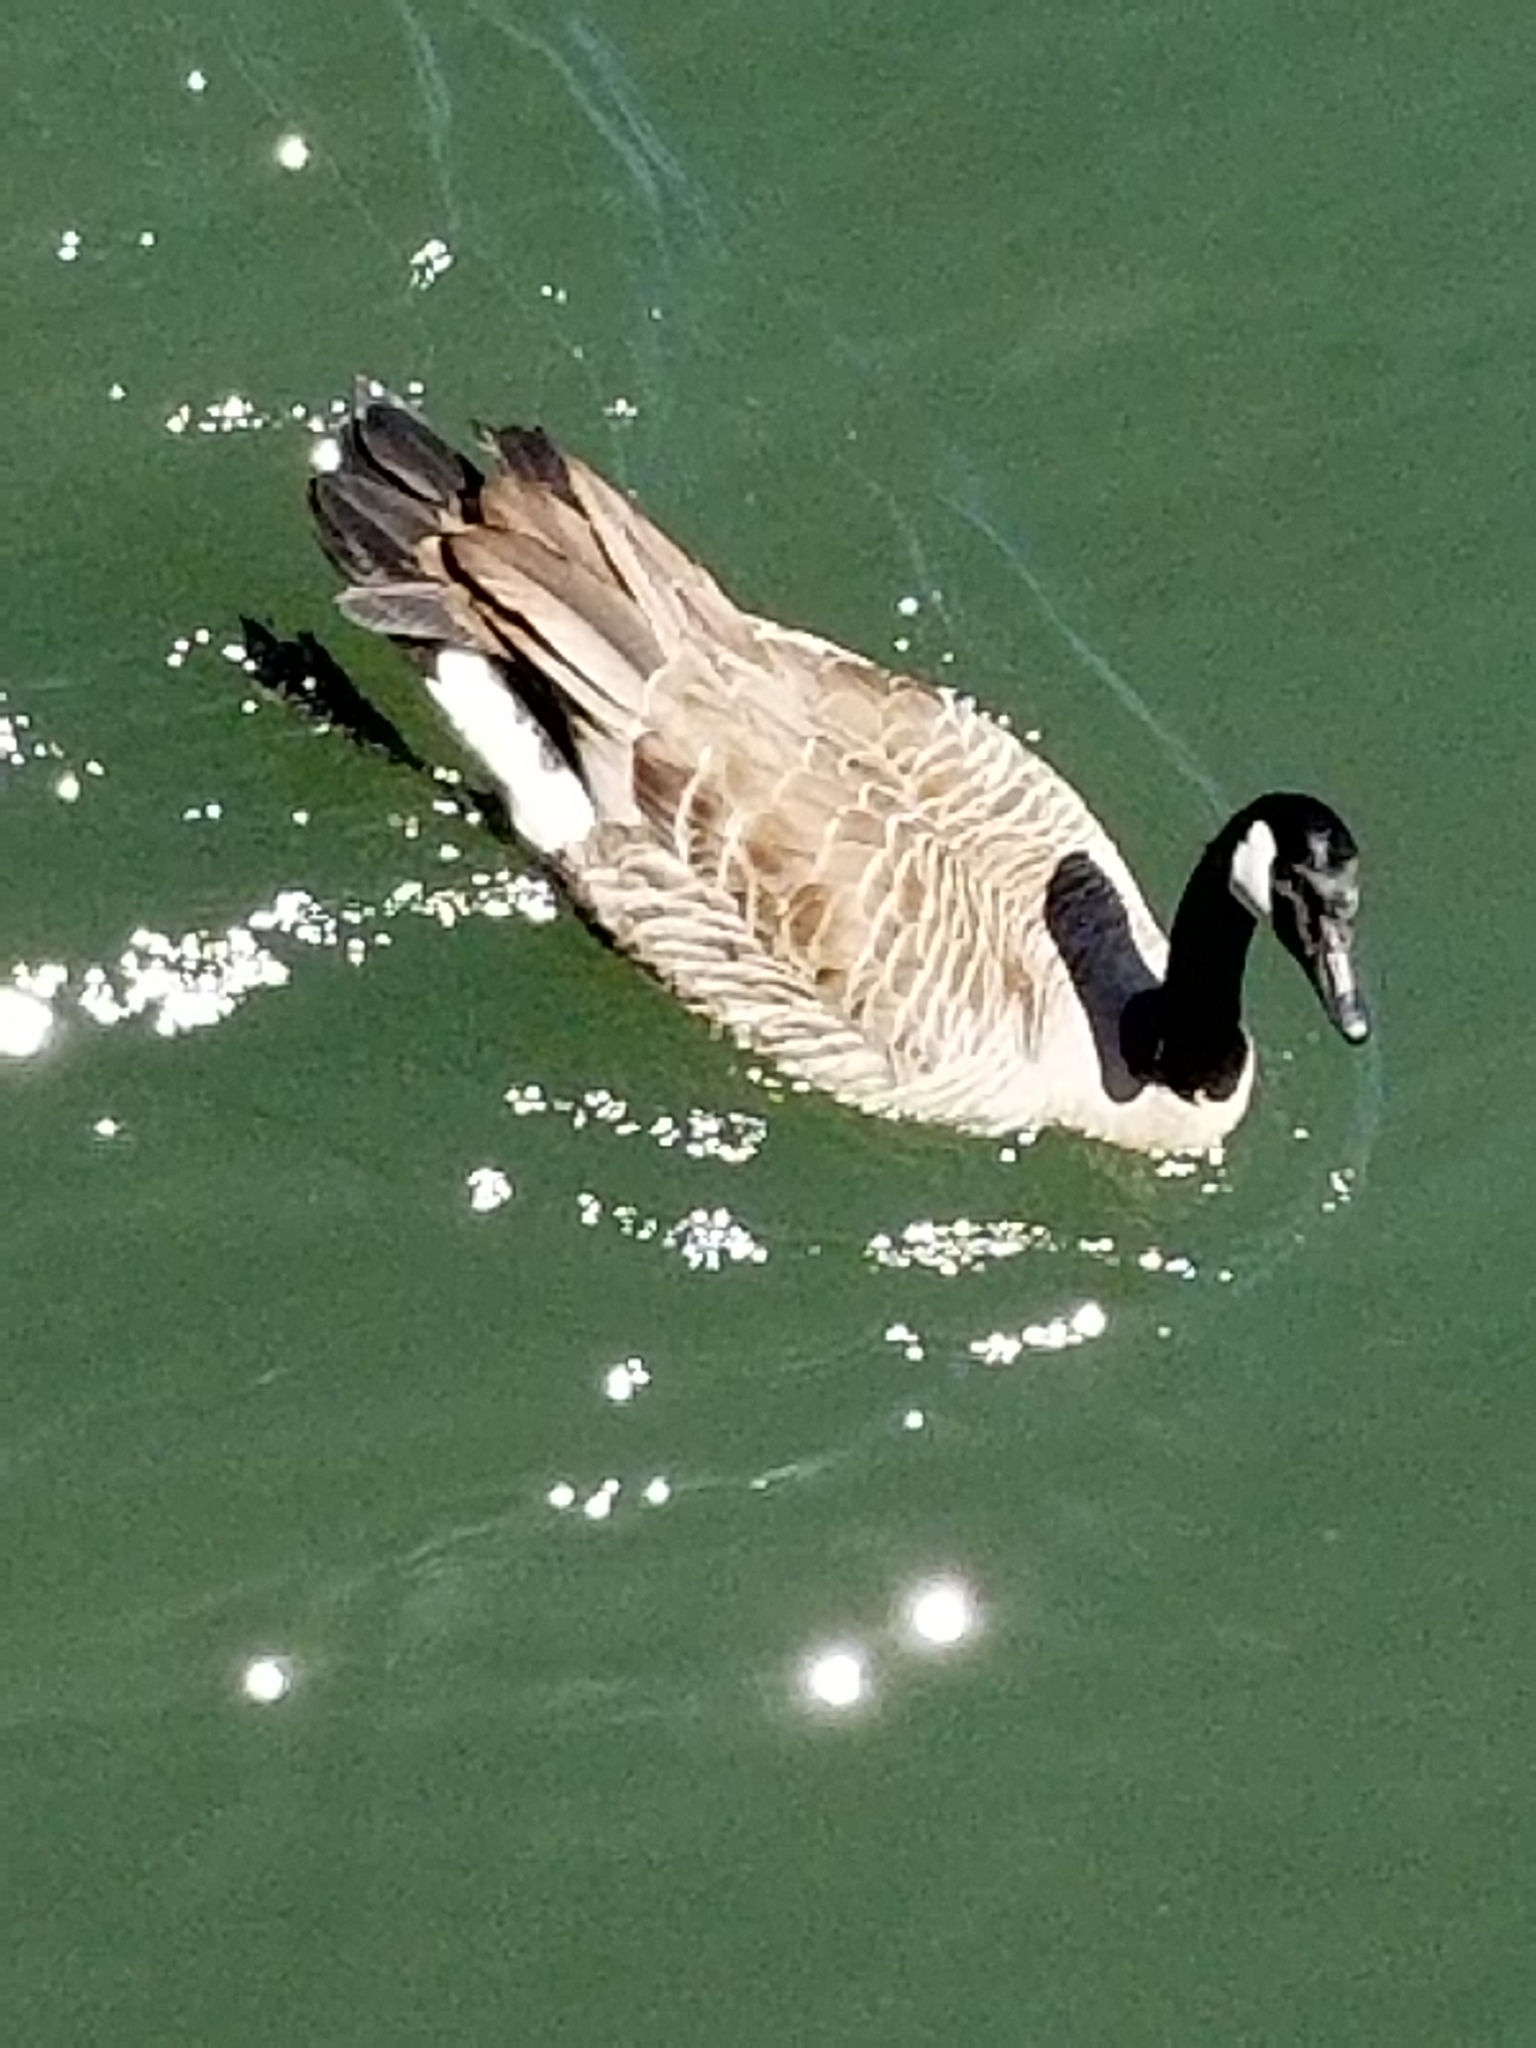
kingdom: Animalia
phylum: Chordata
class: Aves
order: Anseriformes
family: Anatidae
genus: Branta
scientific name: Branta canadensis
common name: Canada goose
